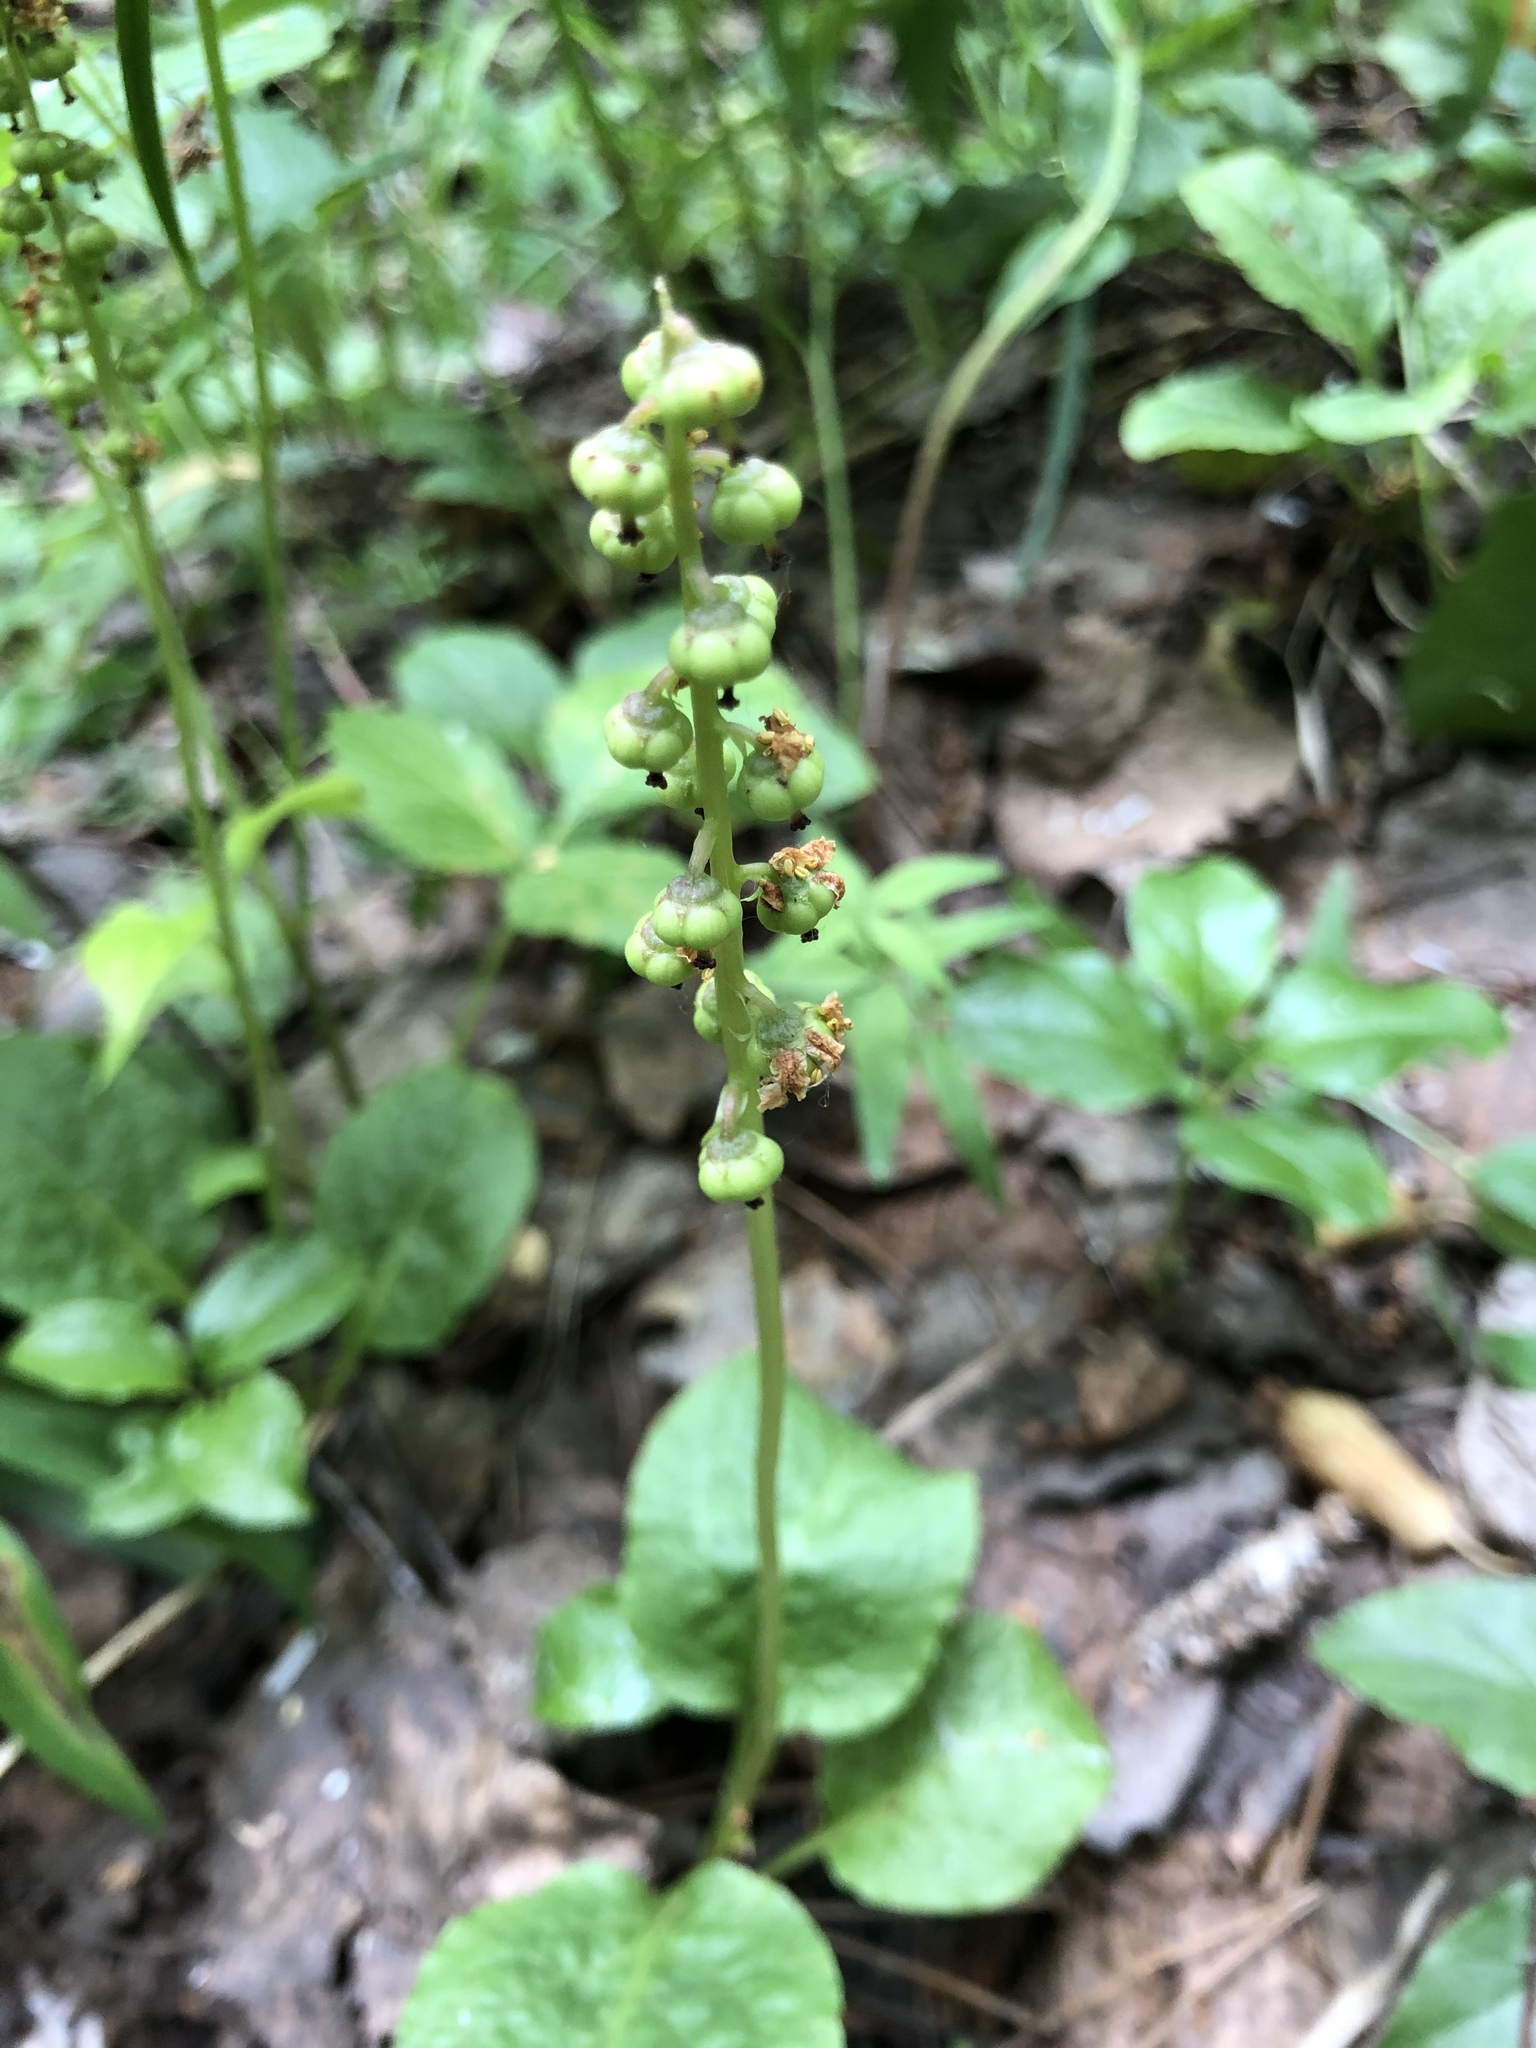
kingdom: Plantae
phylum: Tracheophyta
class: Magnoliopsida
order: Ericales
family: Ericaceae
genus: Pyrola
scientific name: Pyrola minor
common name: Common wintergreen
